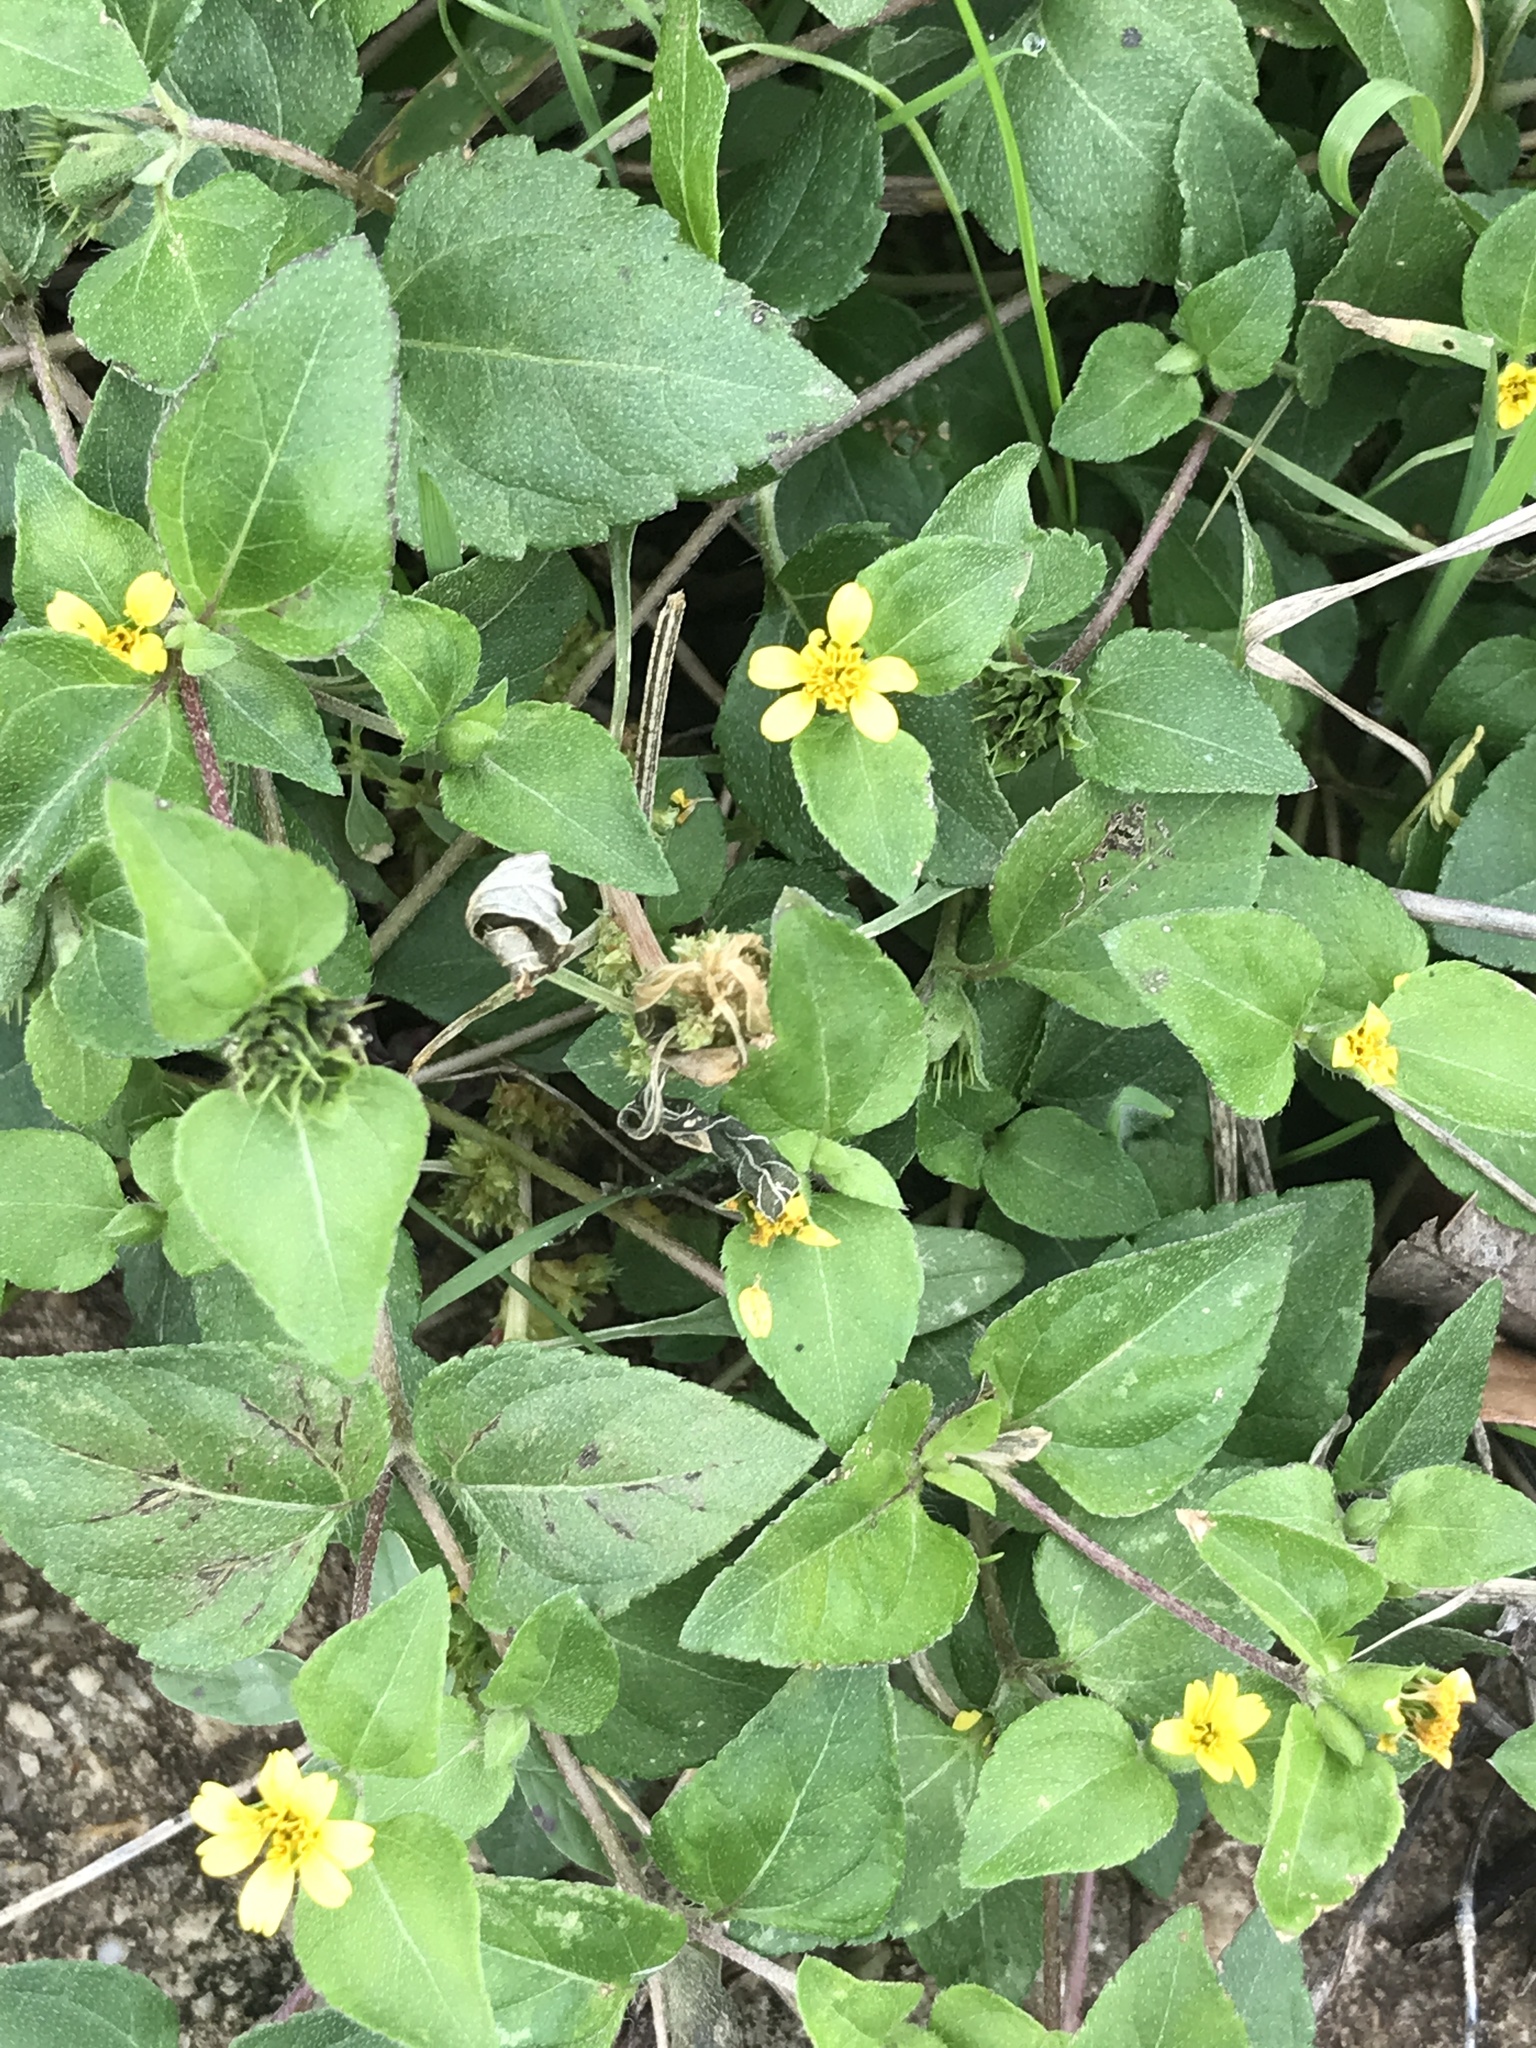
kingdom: Plantae
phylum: Tracheophyta
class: Magnoliopsida
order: Asterales
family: Asteraceae
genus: Calyptocarpus
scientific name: Calyptocarpus vialis
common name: Straggler daisy
